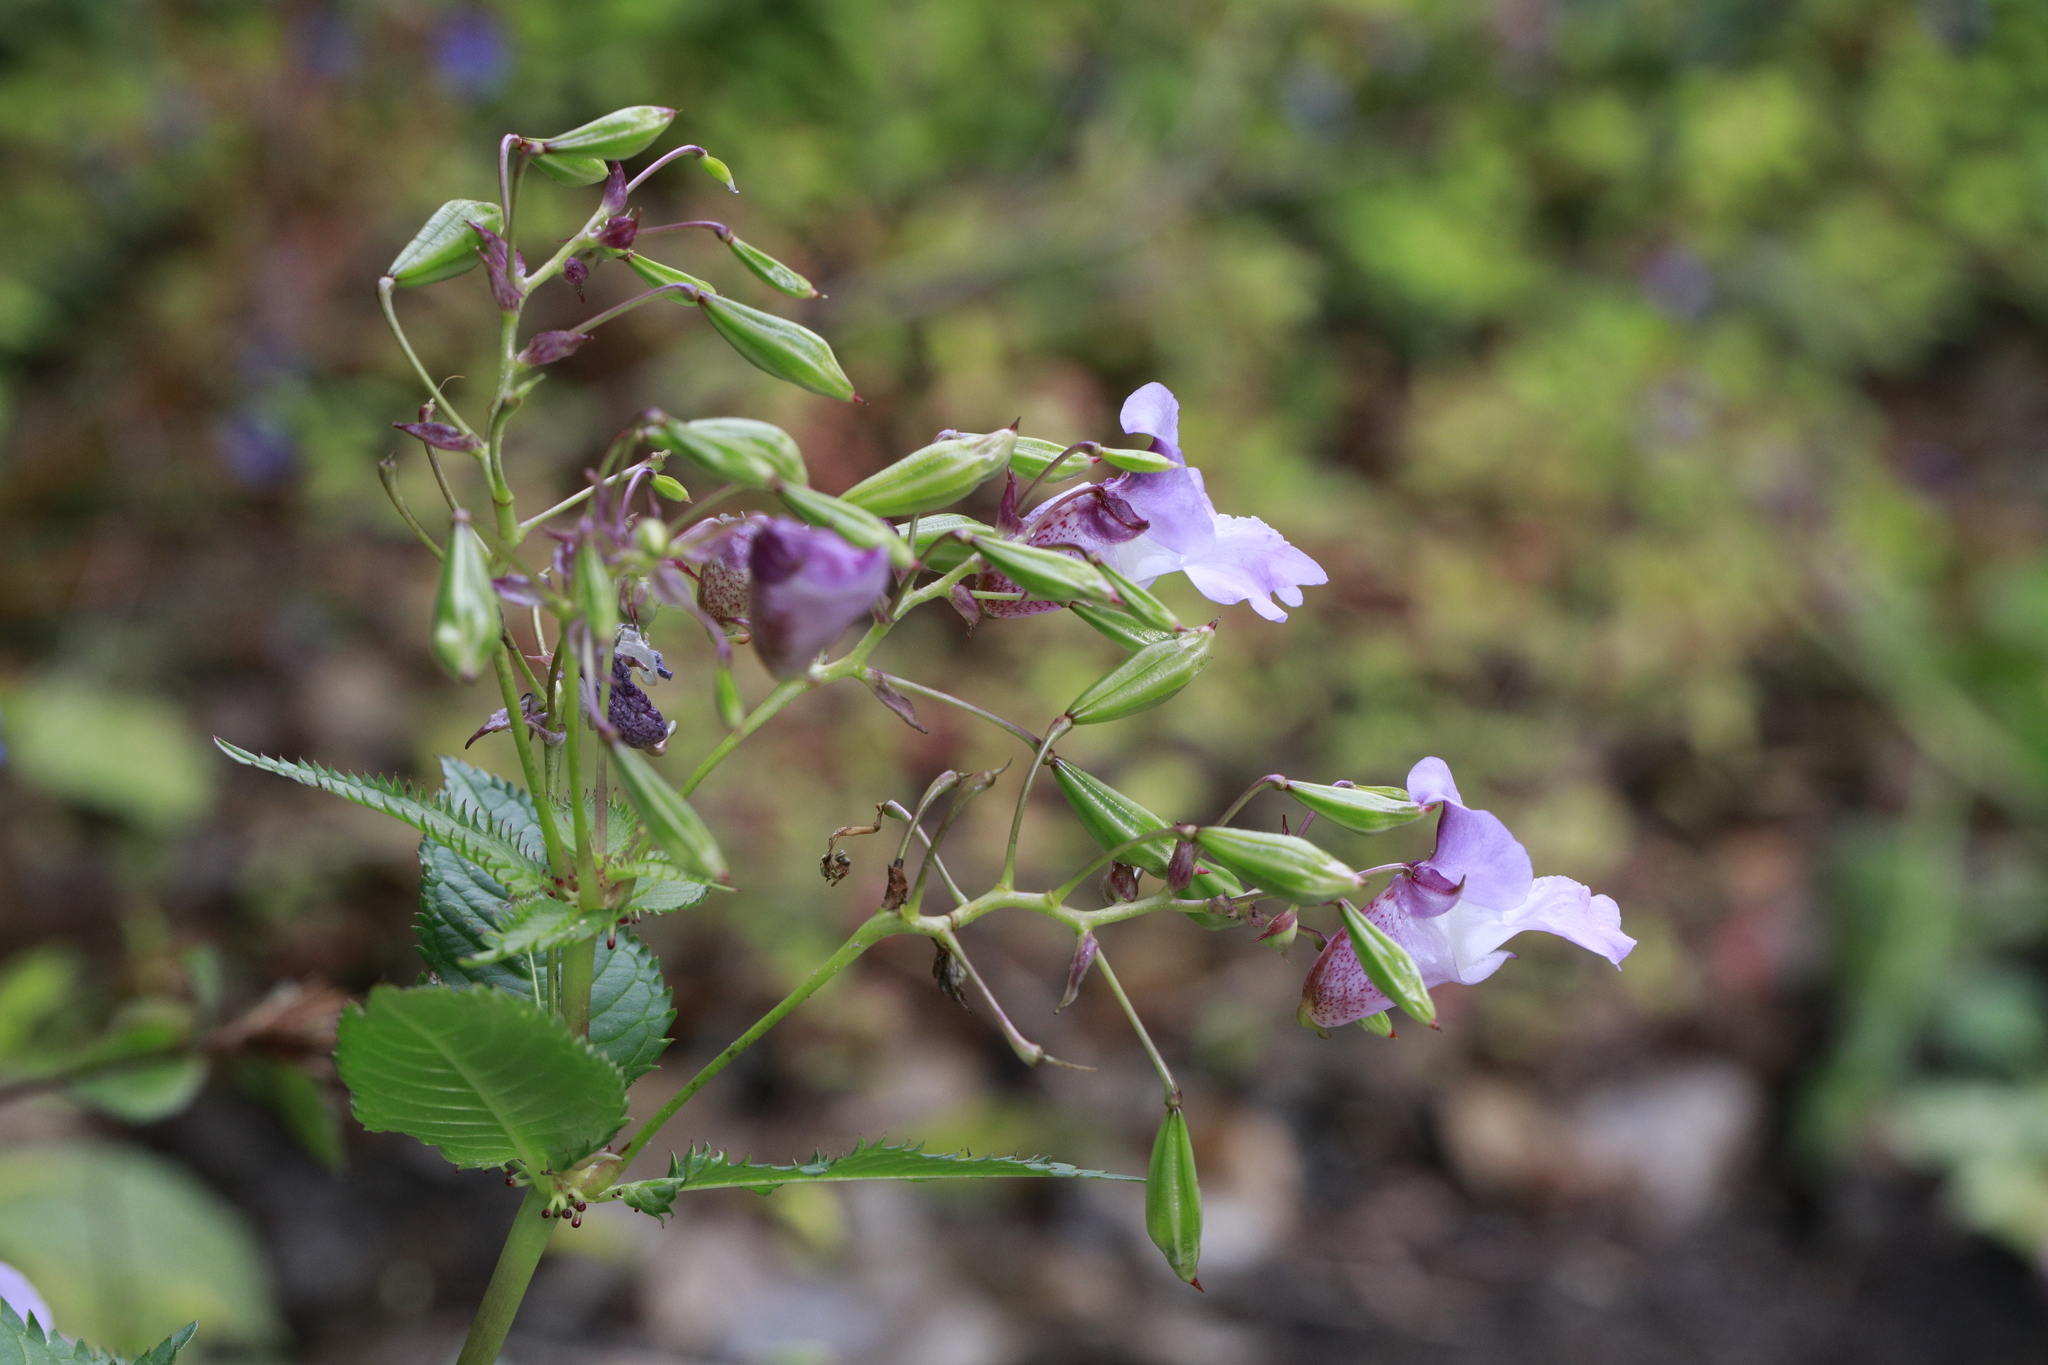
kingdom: Plantae
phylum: Tracheophyta
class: Magnoliopsida
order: Ericales
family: Balsaminaceae
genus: Impatiens
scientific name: Impatiens glandulifera
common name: Himalayan balsam
